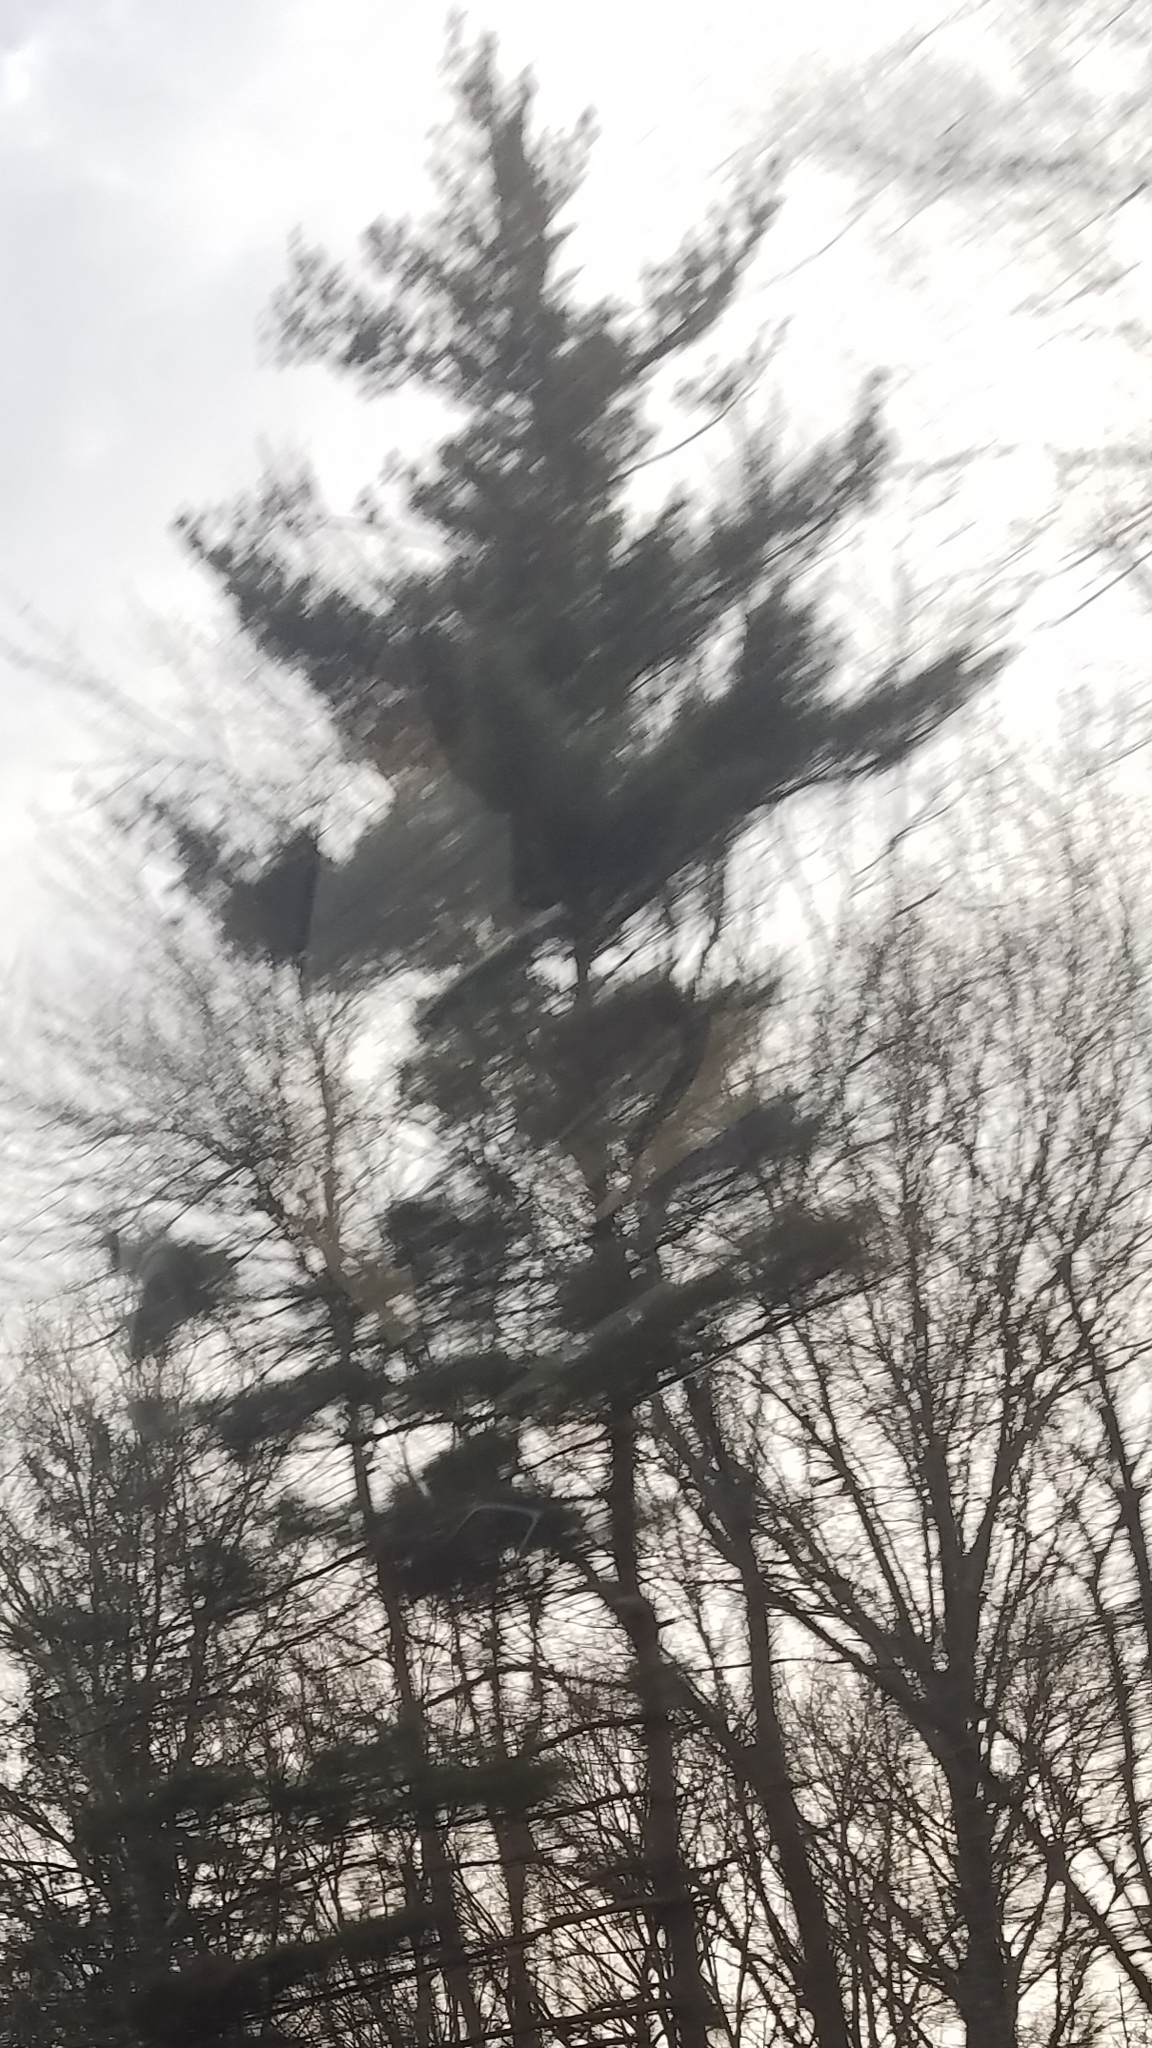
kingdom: Plantae
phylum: Tracheophyta
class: Pinopsida
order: Pinales
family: Pinaceae
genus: Pinus
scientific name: Pinus strobus
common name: Weymouth pine
